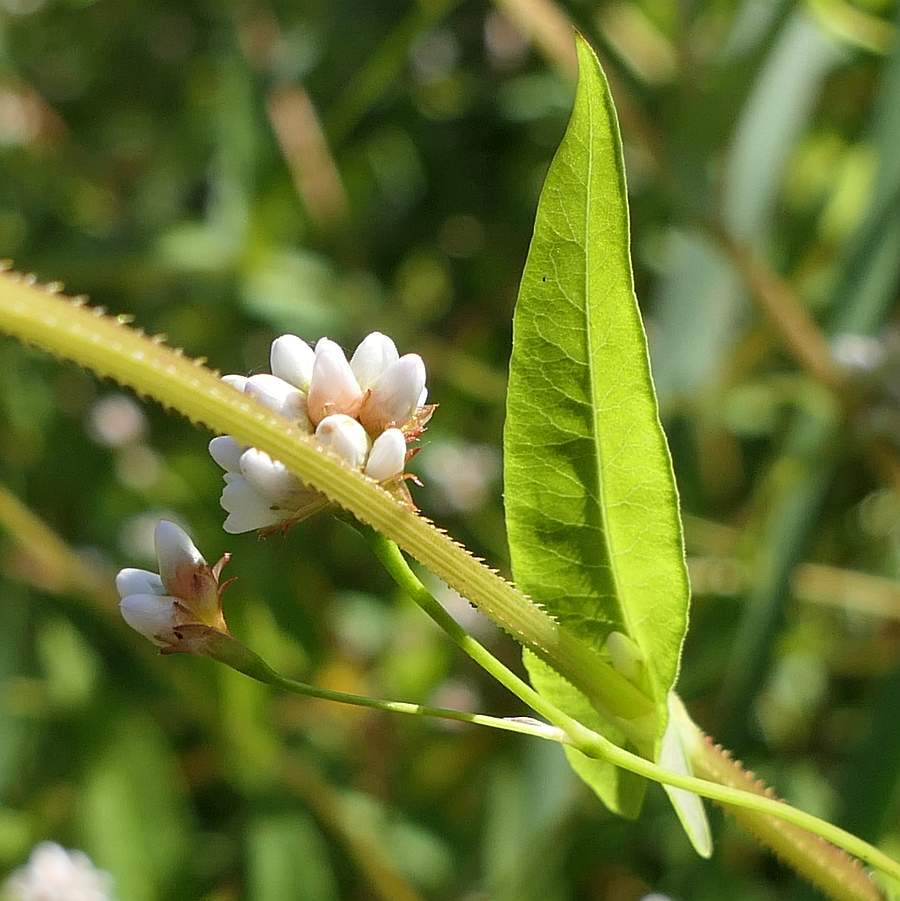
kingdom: Plantae
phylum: Tracheophyta
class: Magnoliopsida
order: Caryophyllales
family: Polygonaceae
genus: Persicaria
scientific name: Persicaria sagittata
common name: American tearthumb
